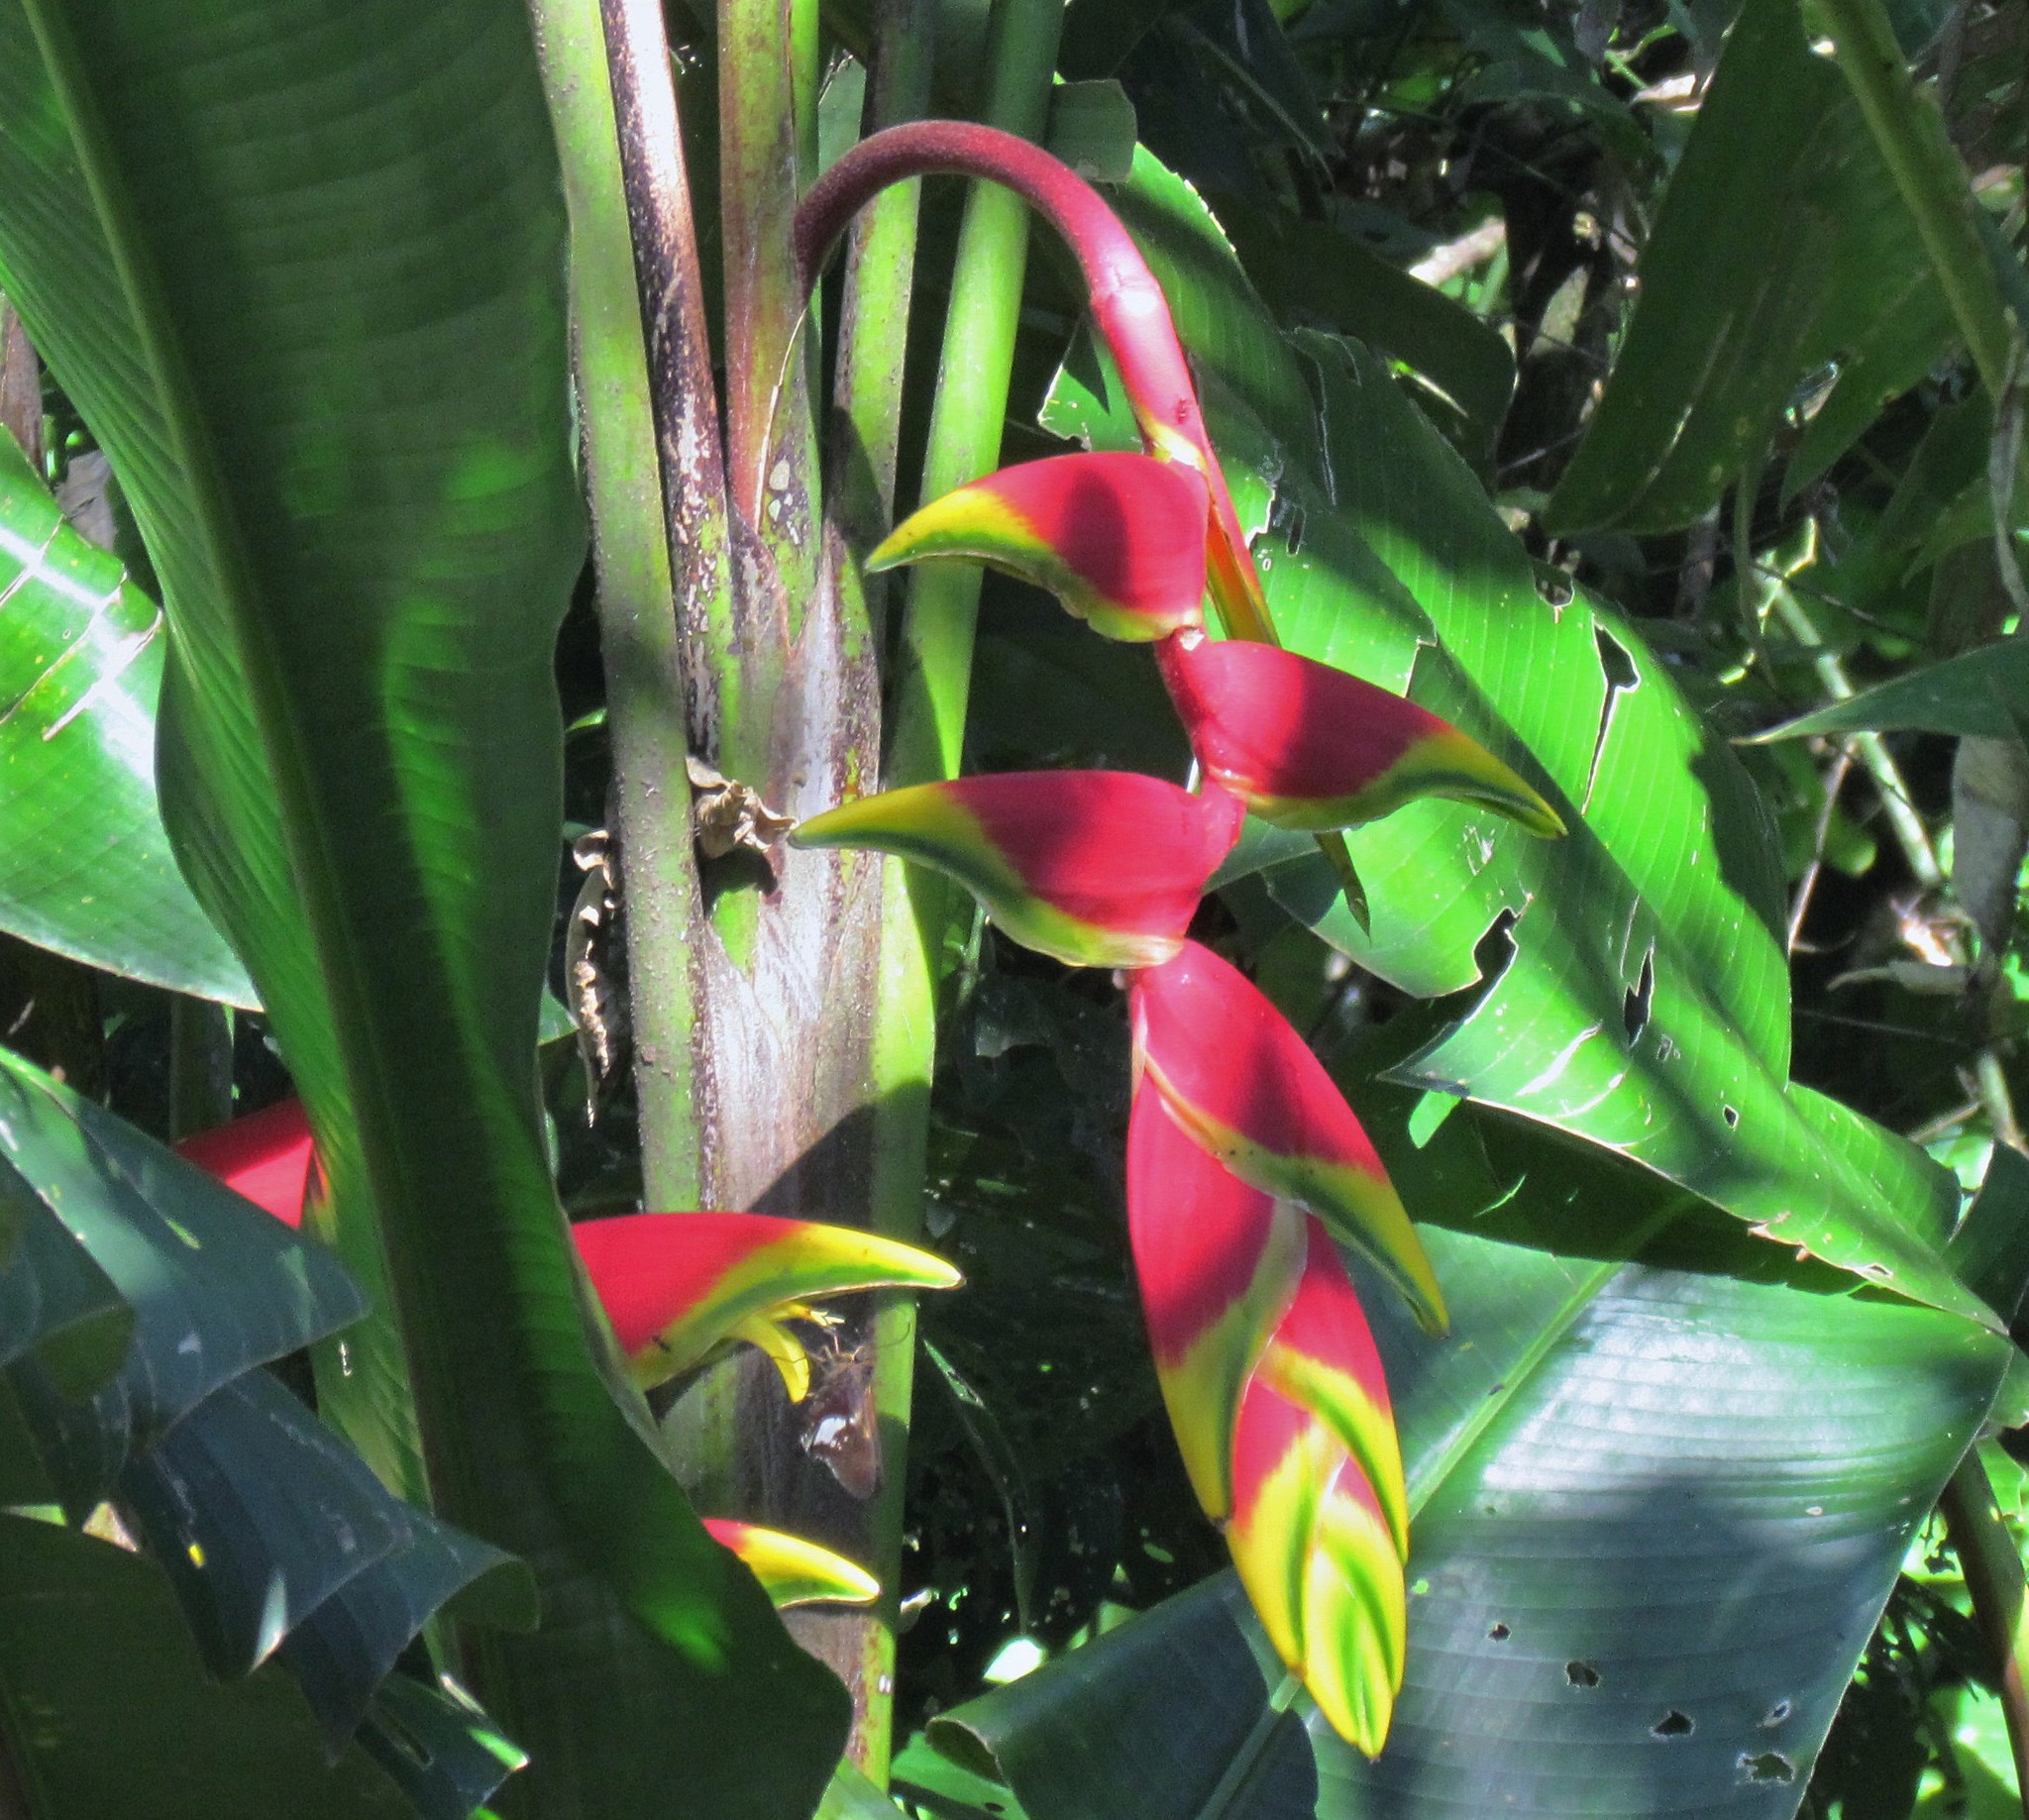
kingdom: Plantae
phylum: Tracheophyta
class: Liliopsida
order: Zingiberales
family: Heliconiaceae
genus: Heliconia
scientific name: Heliconia rostrata
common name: False bird of paradise
